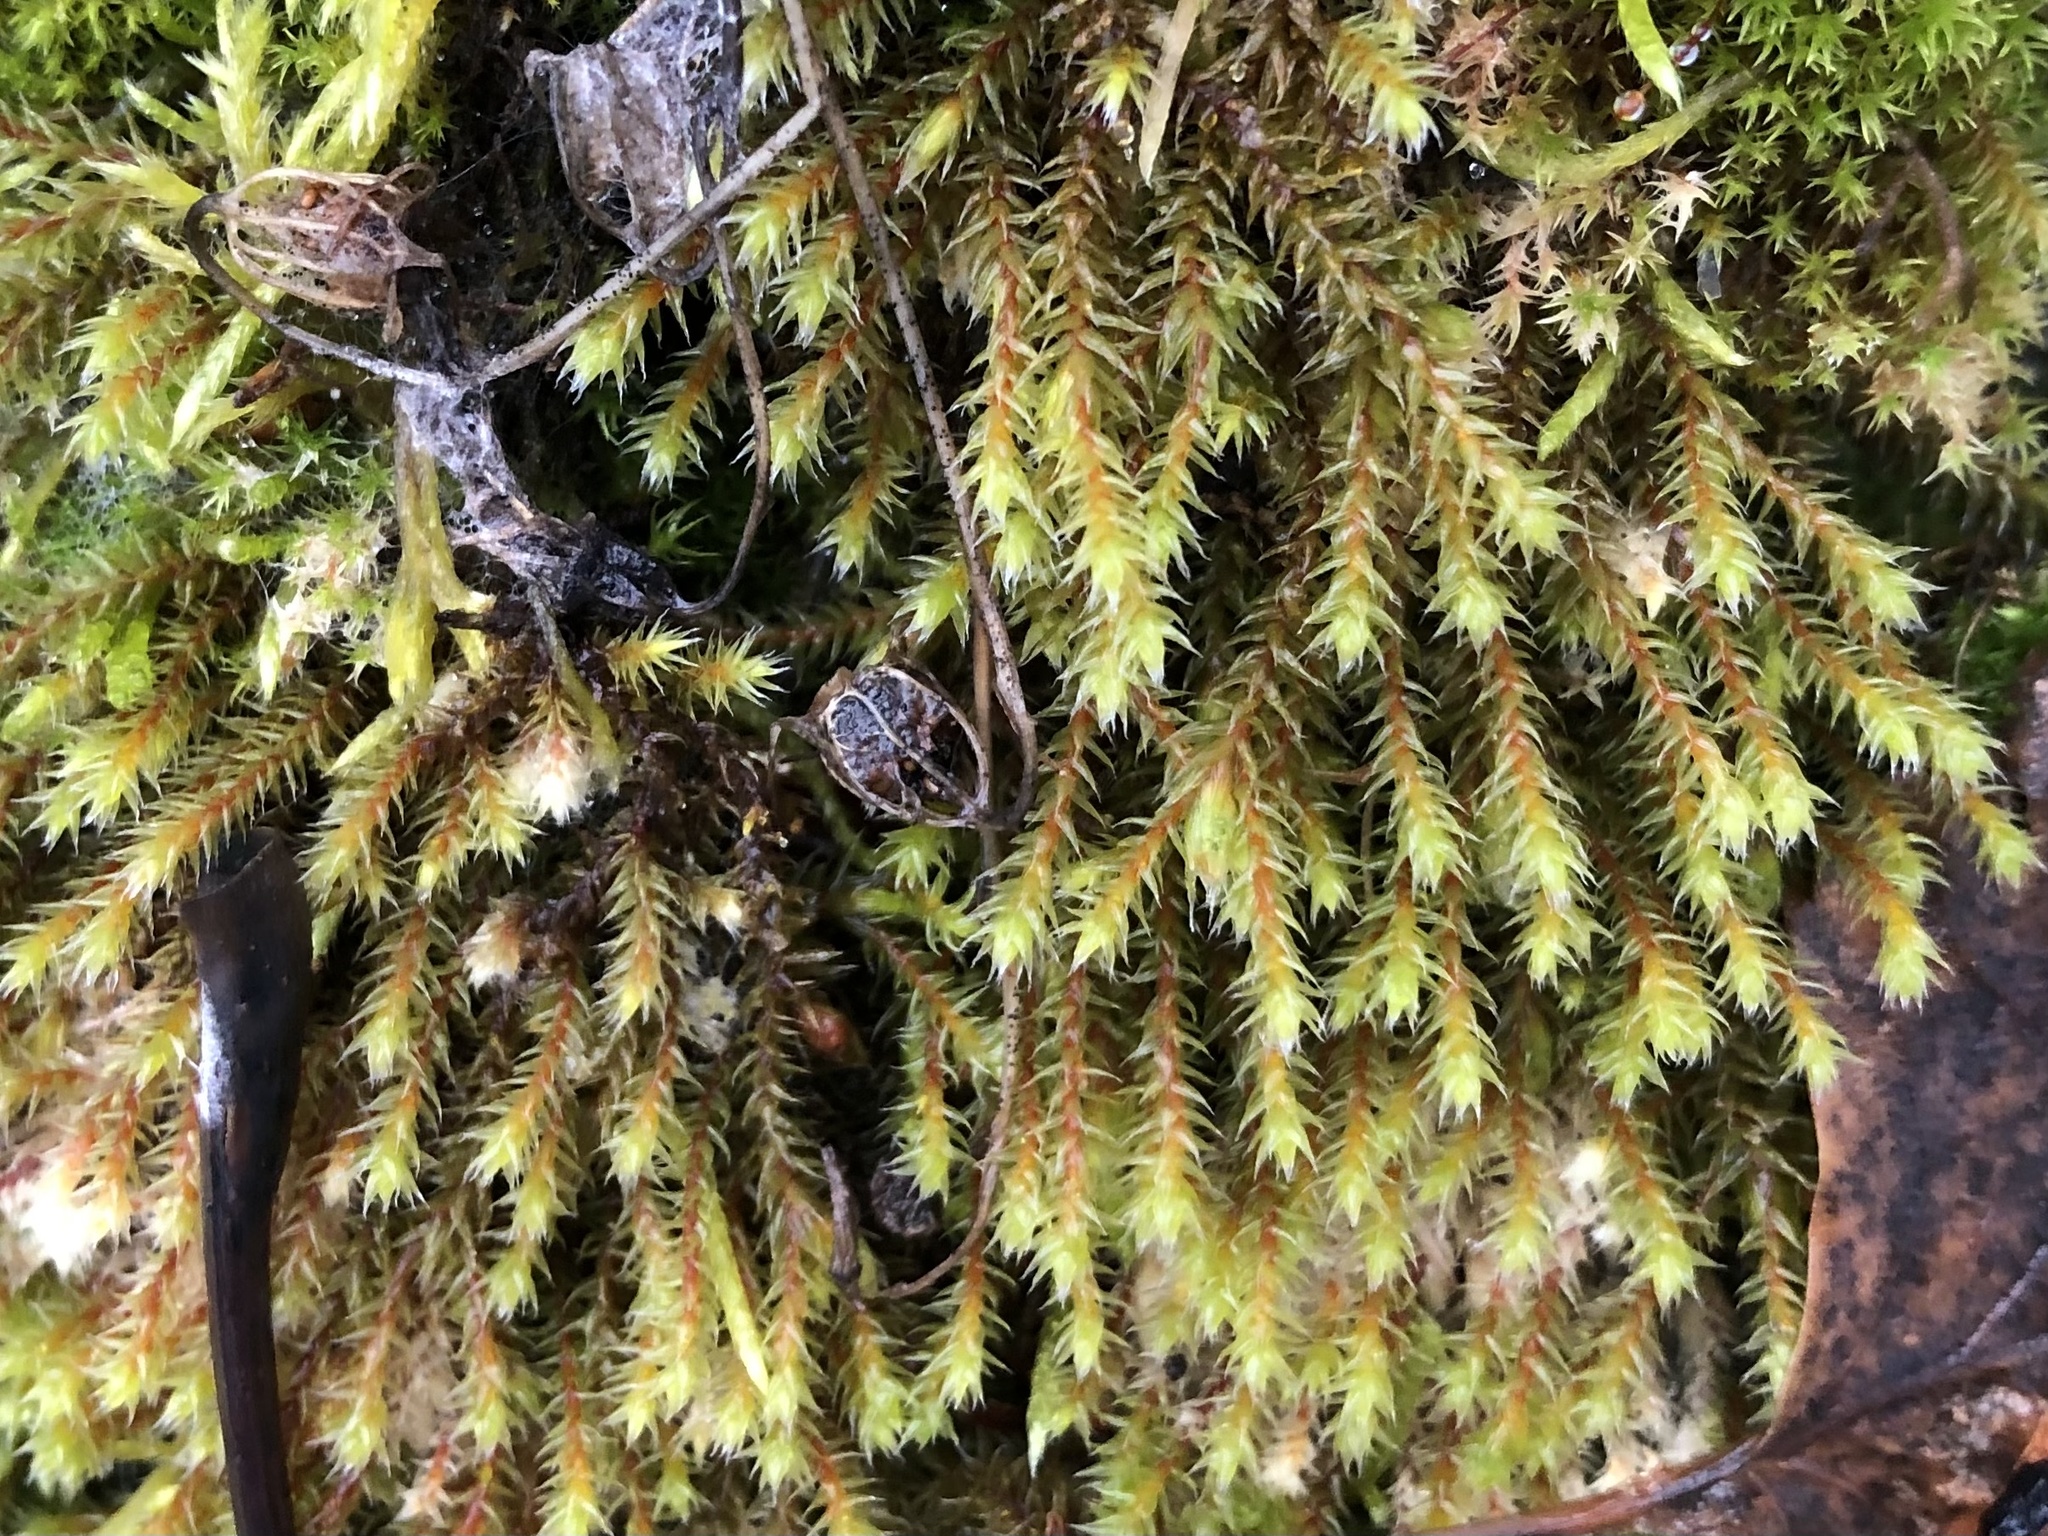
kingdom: Plantae
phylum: Bryophyta
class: Bryopsida
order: Hedwigiales
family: Hedwigiaceae
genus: Hedwigia
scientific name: Hedwigia ciliata
